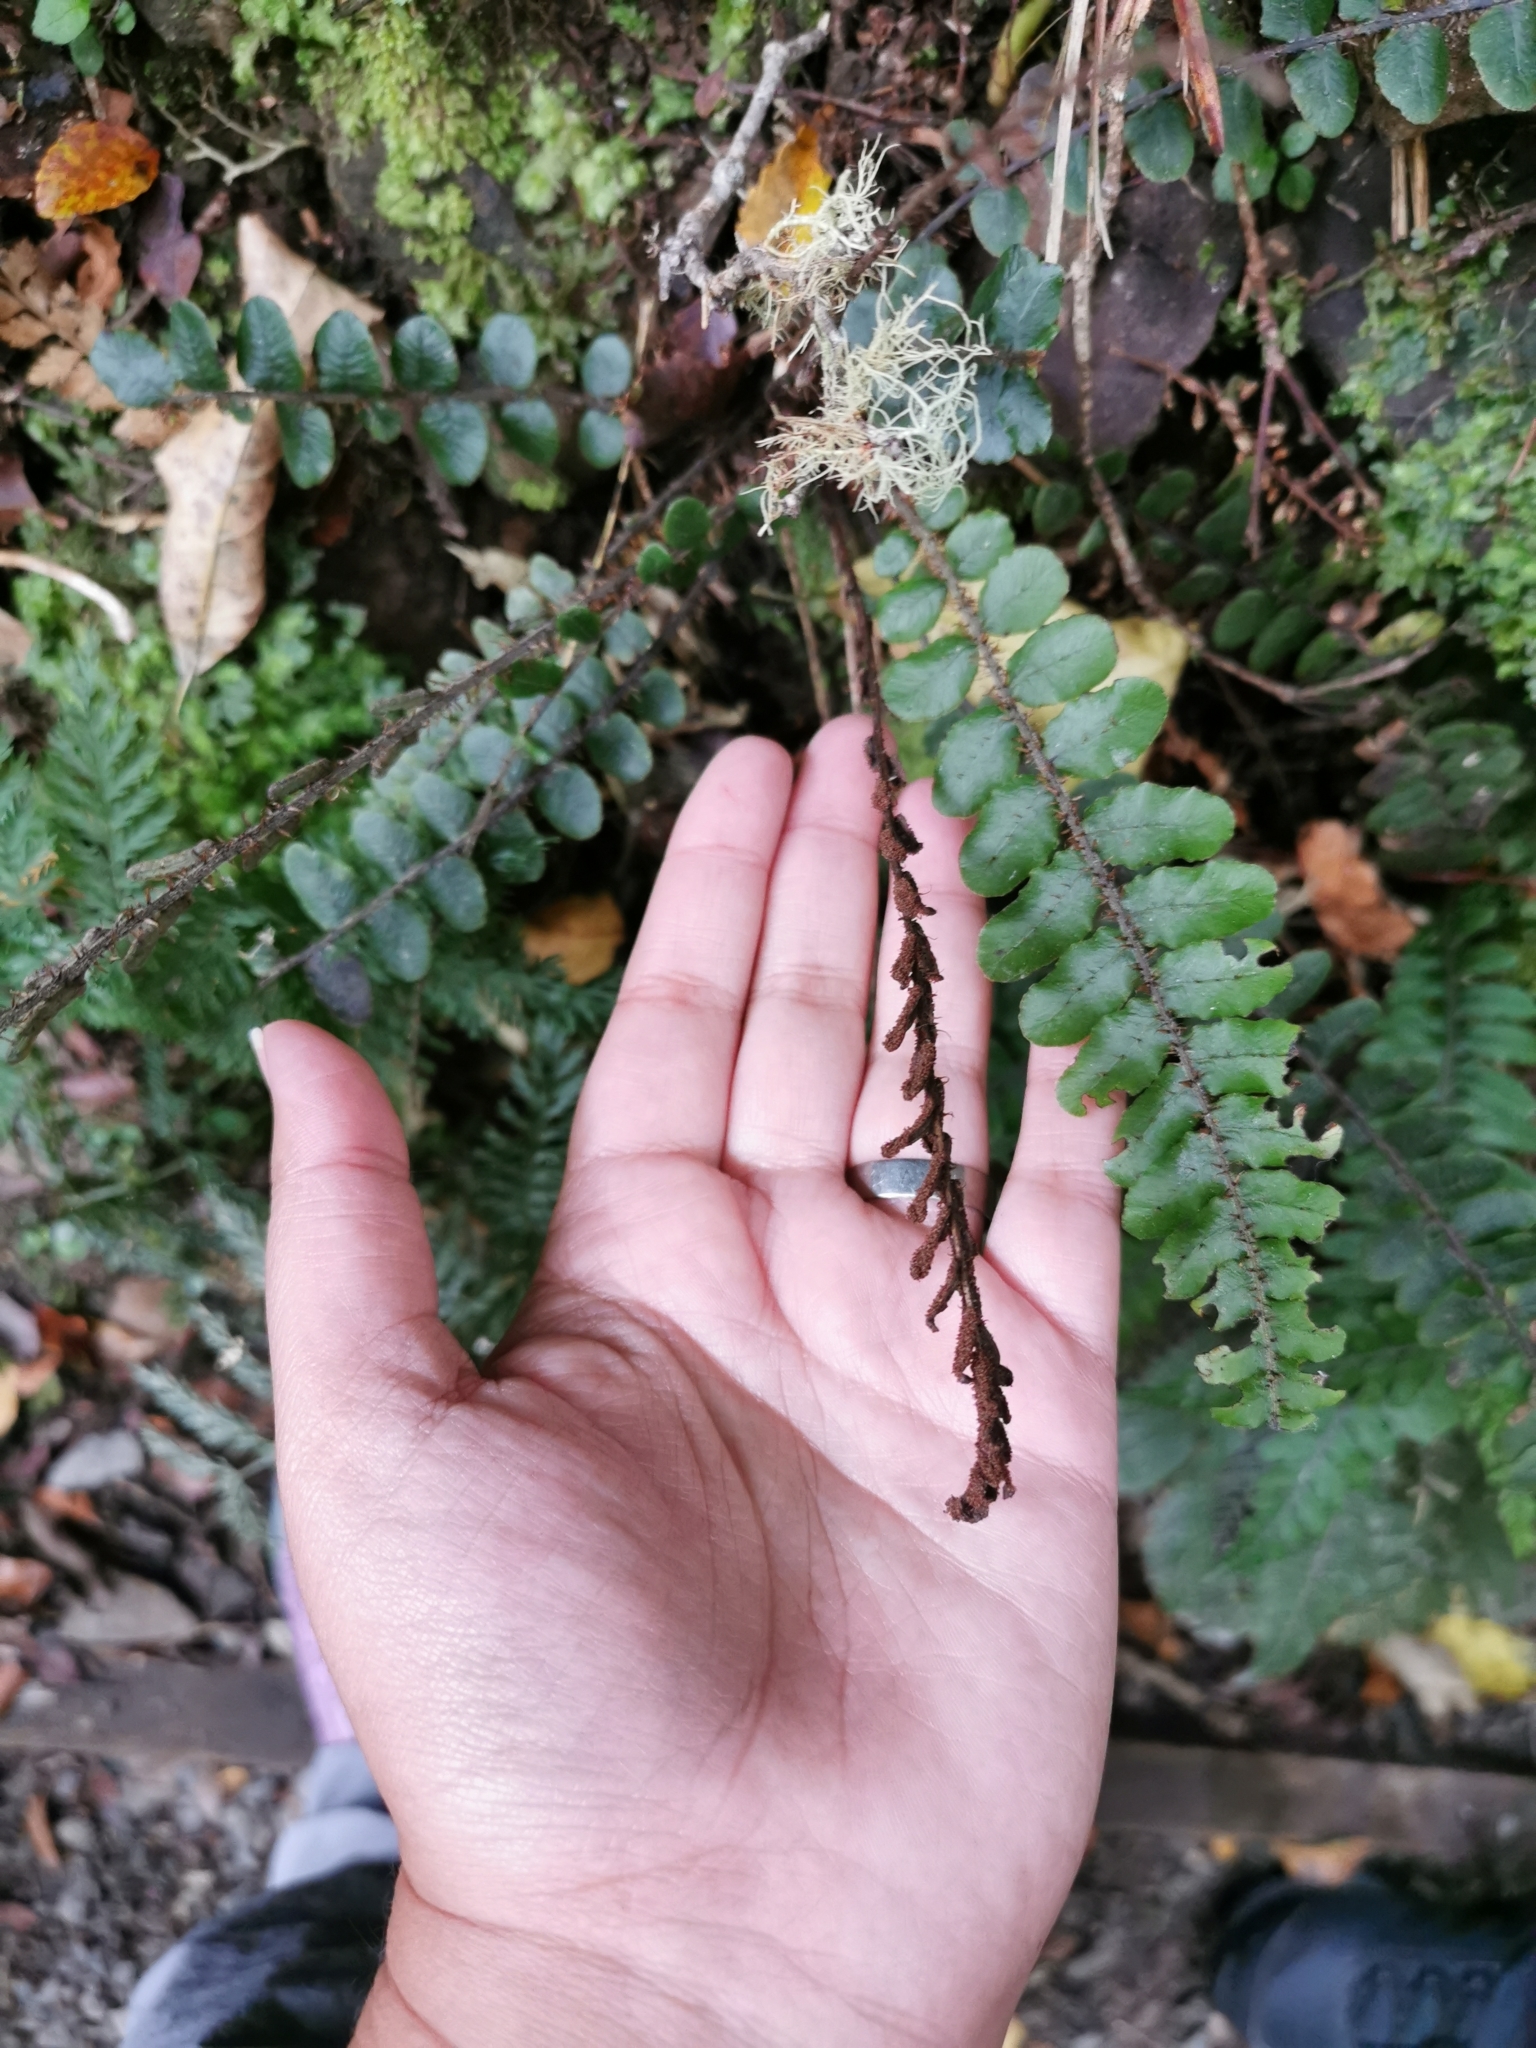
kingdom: Plantae
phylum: Tracheophyta
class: Polypodiopsida
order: Polypodiales
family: Blechnaceae
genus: Cranfillia
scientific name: Cranfillia fluviatilis
